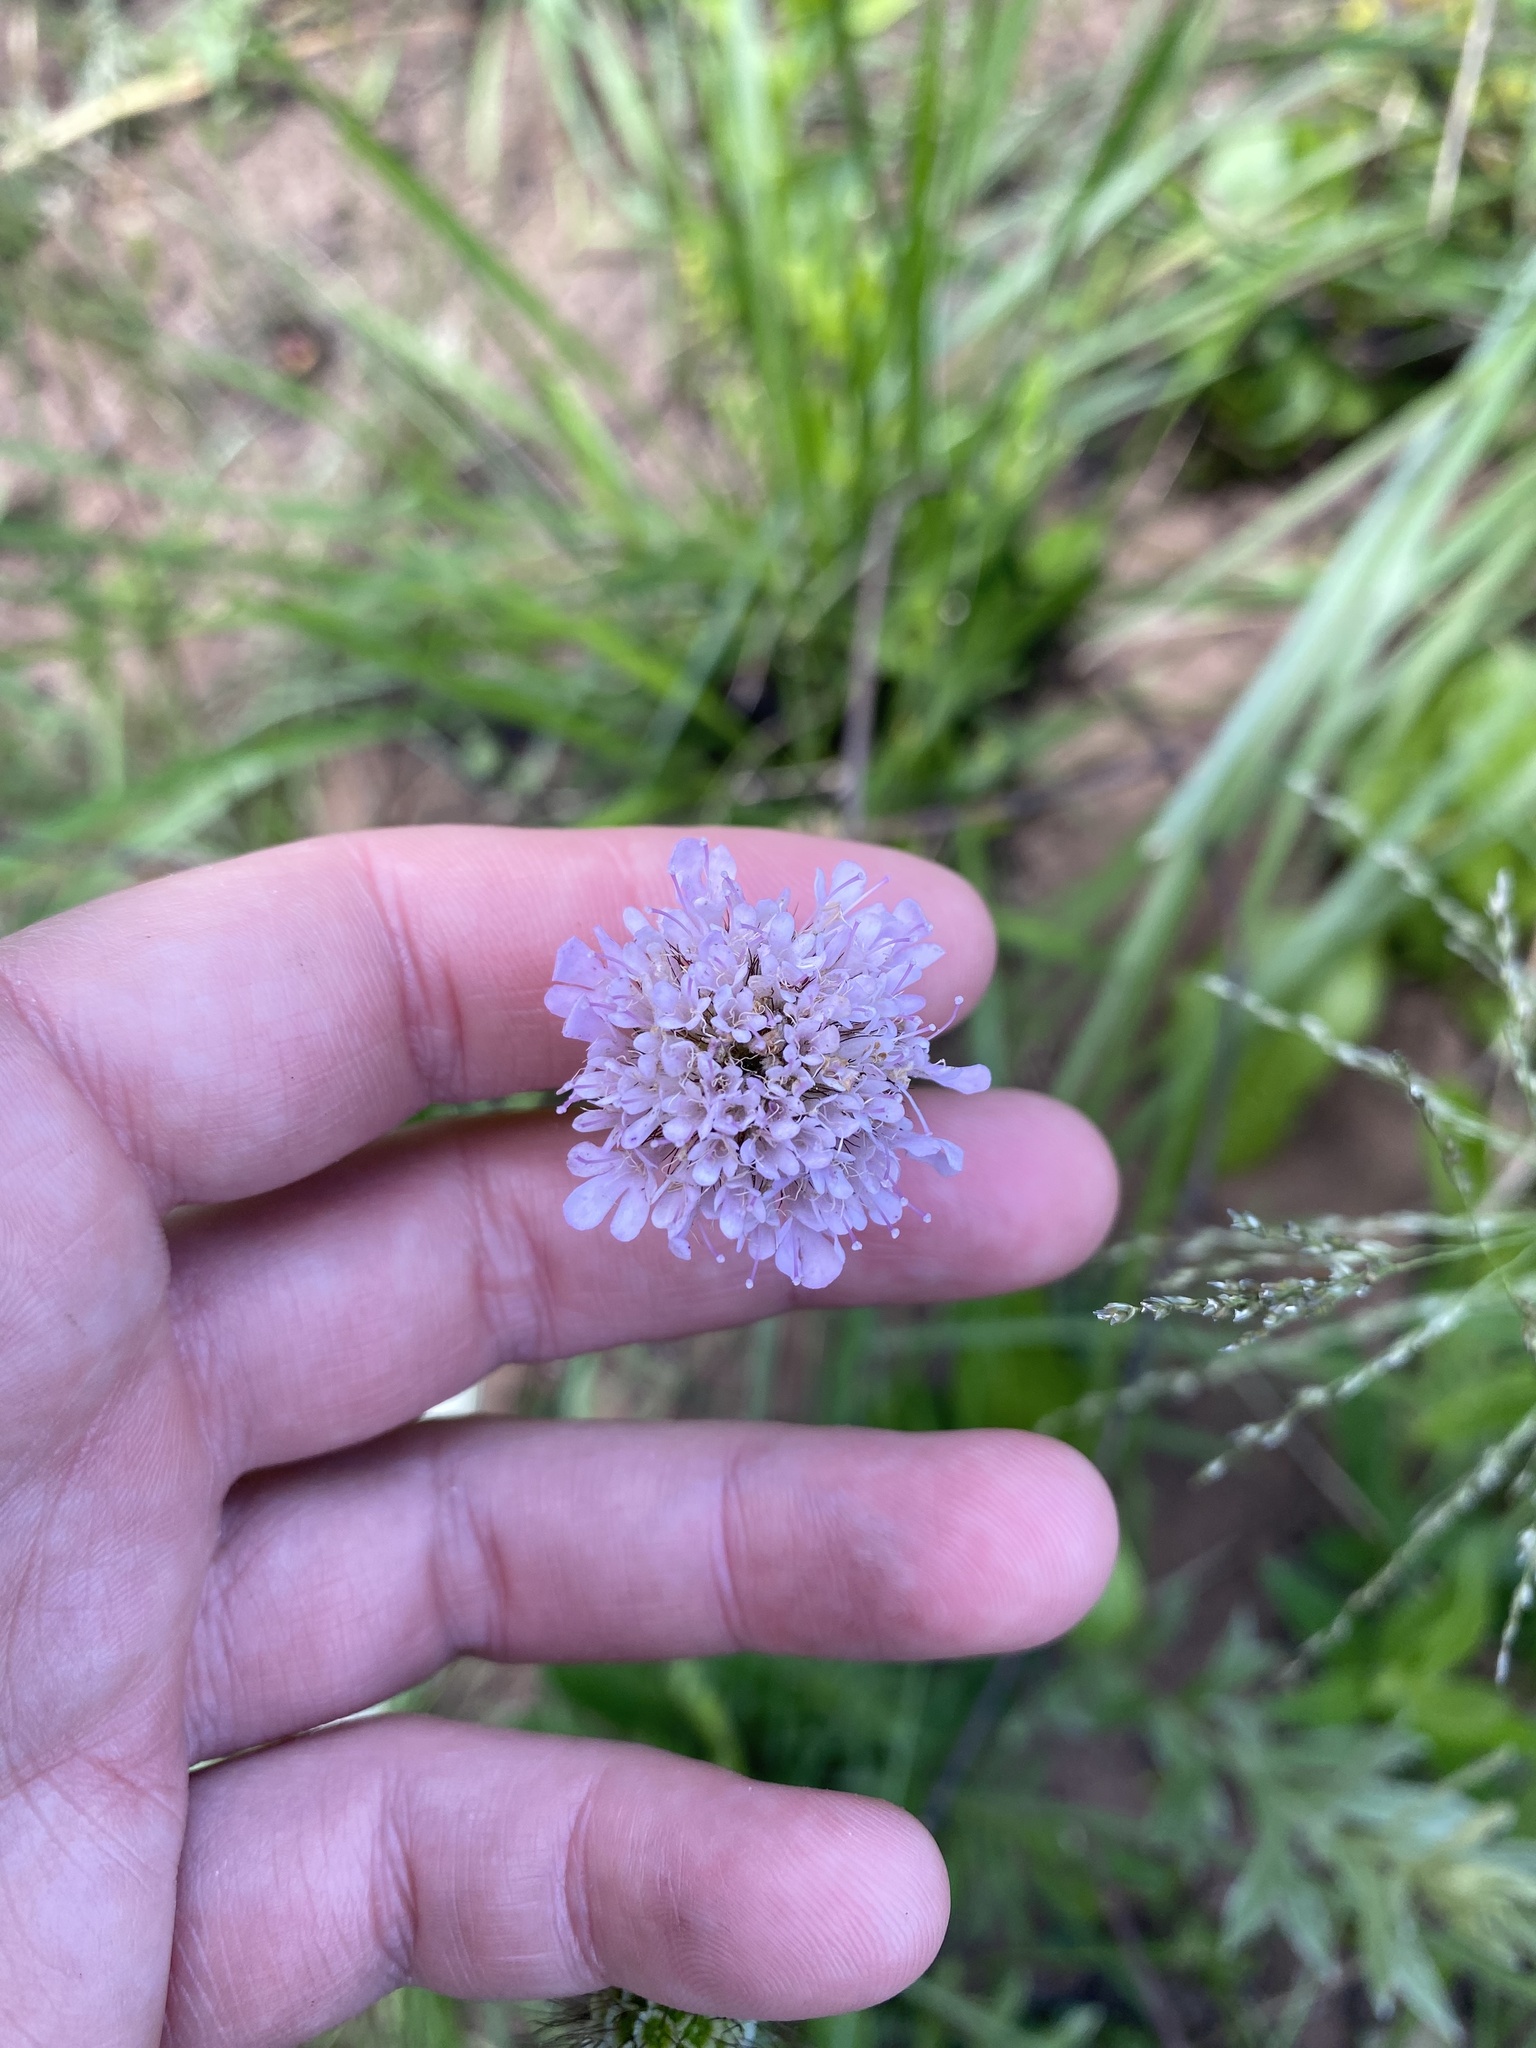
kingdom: Plantae
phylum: Tracheophyta
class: Magnoliopsida
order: Dipsacales
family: Caprifoliaceae
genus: Scabiosa
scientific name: Scabiosa columbaria
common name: Small scabious
